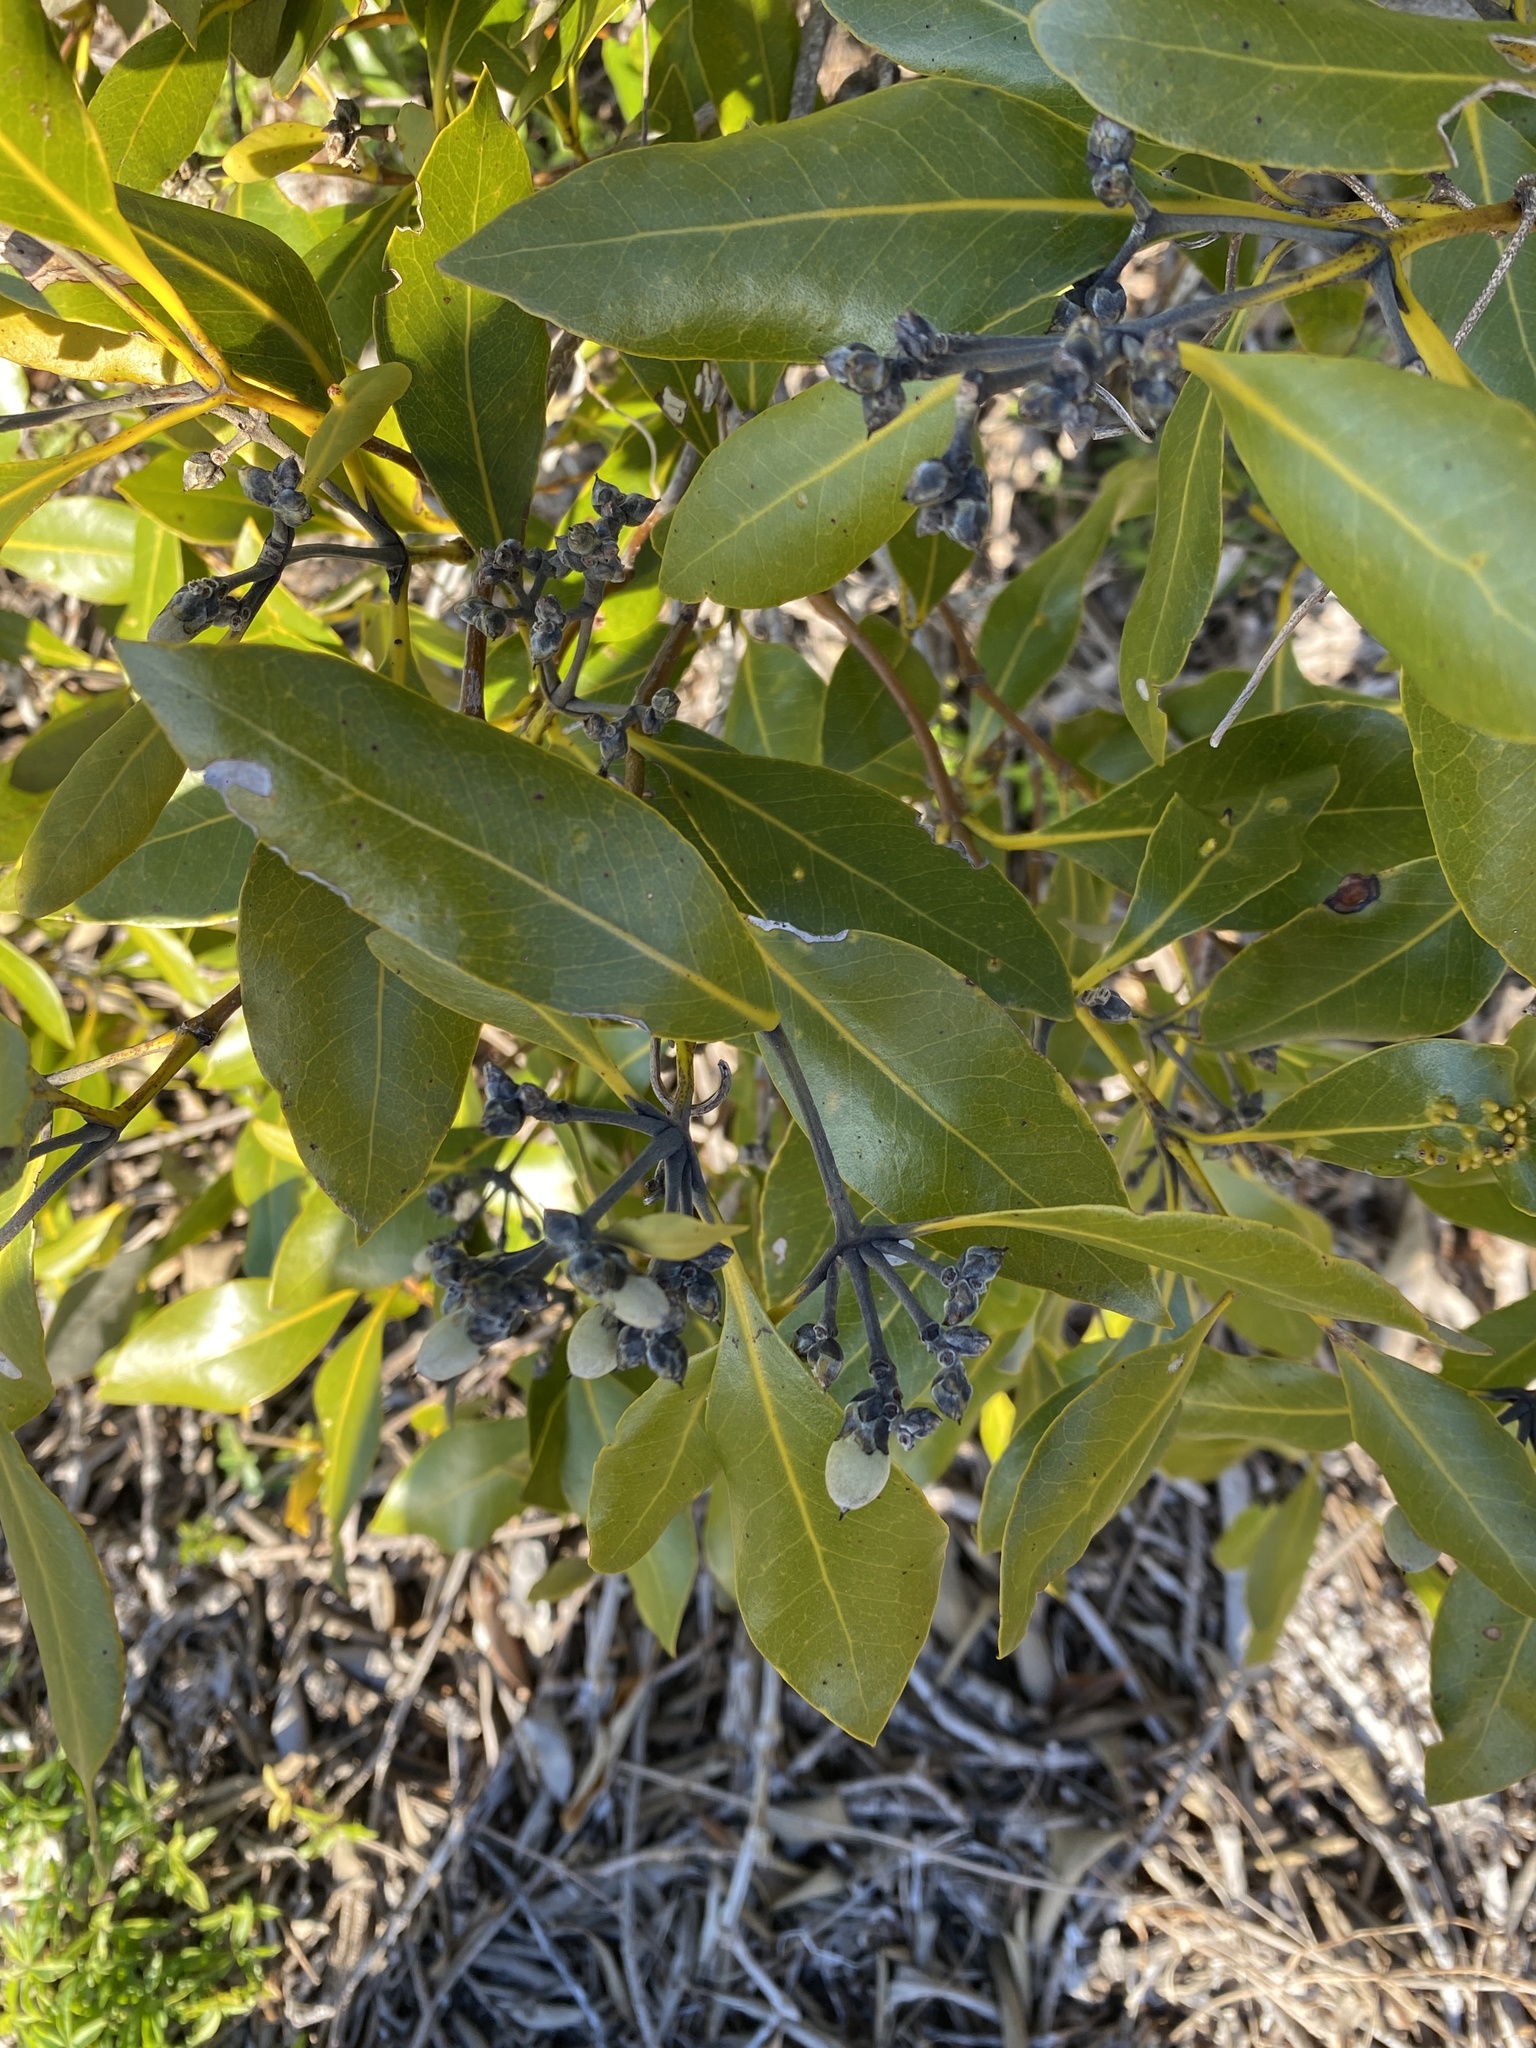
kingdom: Plantae
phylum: Tracheophyta
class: Magnoliopsida
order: Lamiales
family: Acanthaceae
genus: Avicennia
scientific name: Avicennia marina
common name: Gray mangrove
